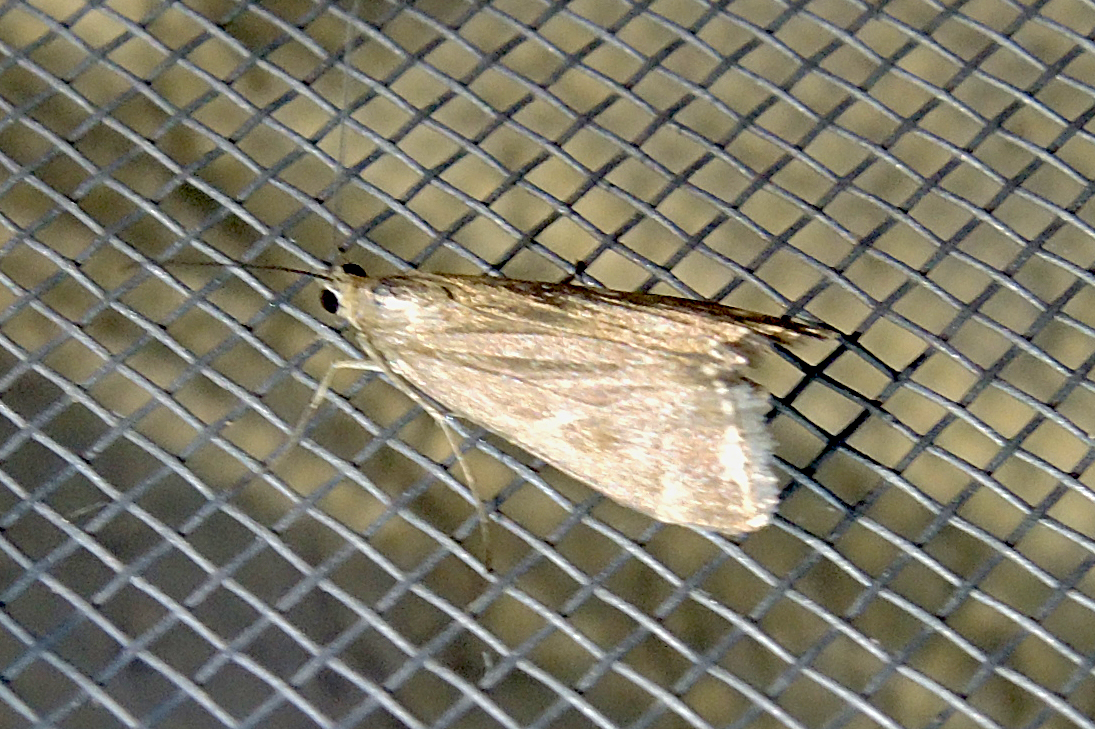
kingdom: Animalia
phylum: Arthropoda
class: Insecta
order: Lepidoptera
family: Crambidae
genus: Loxostege
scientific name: Loxostege sticticalis
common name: Crambid moth
